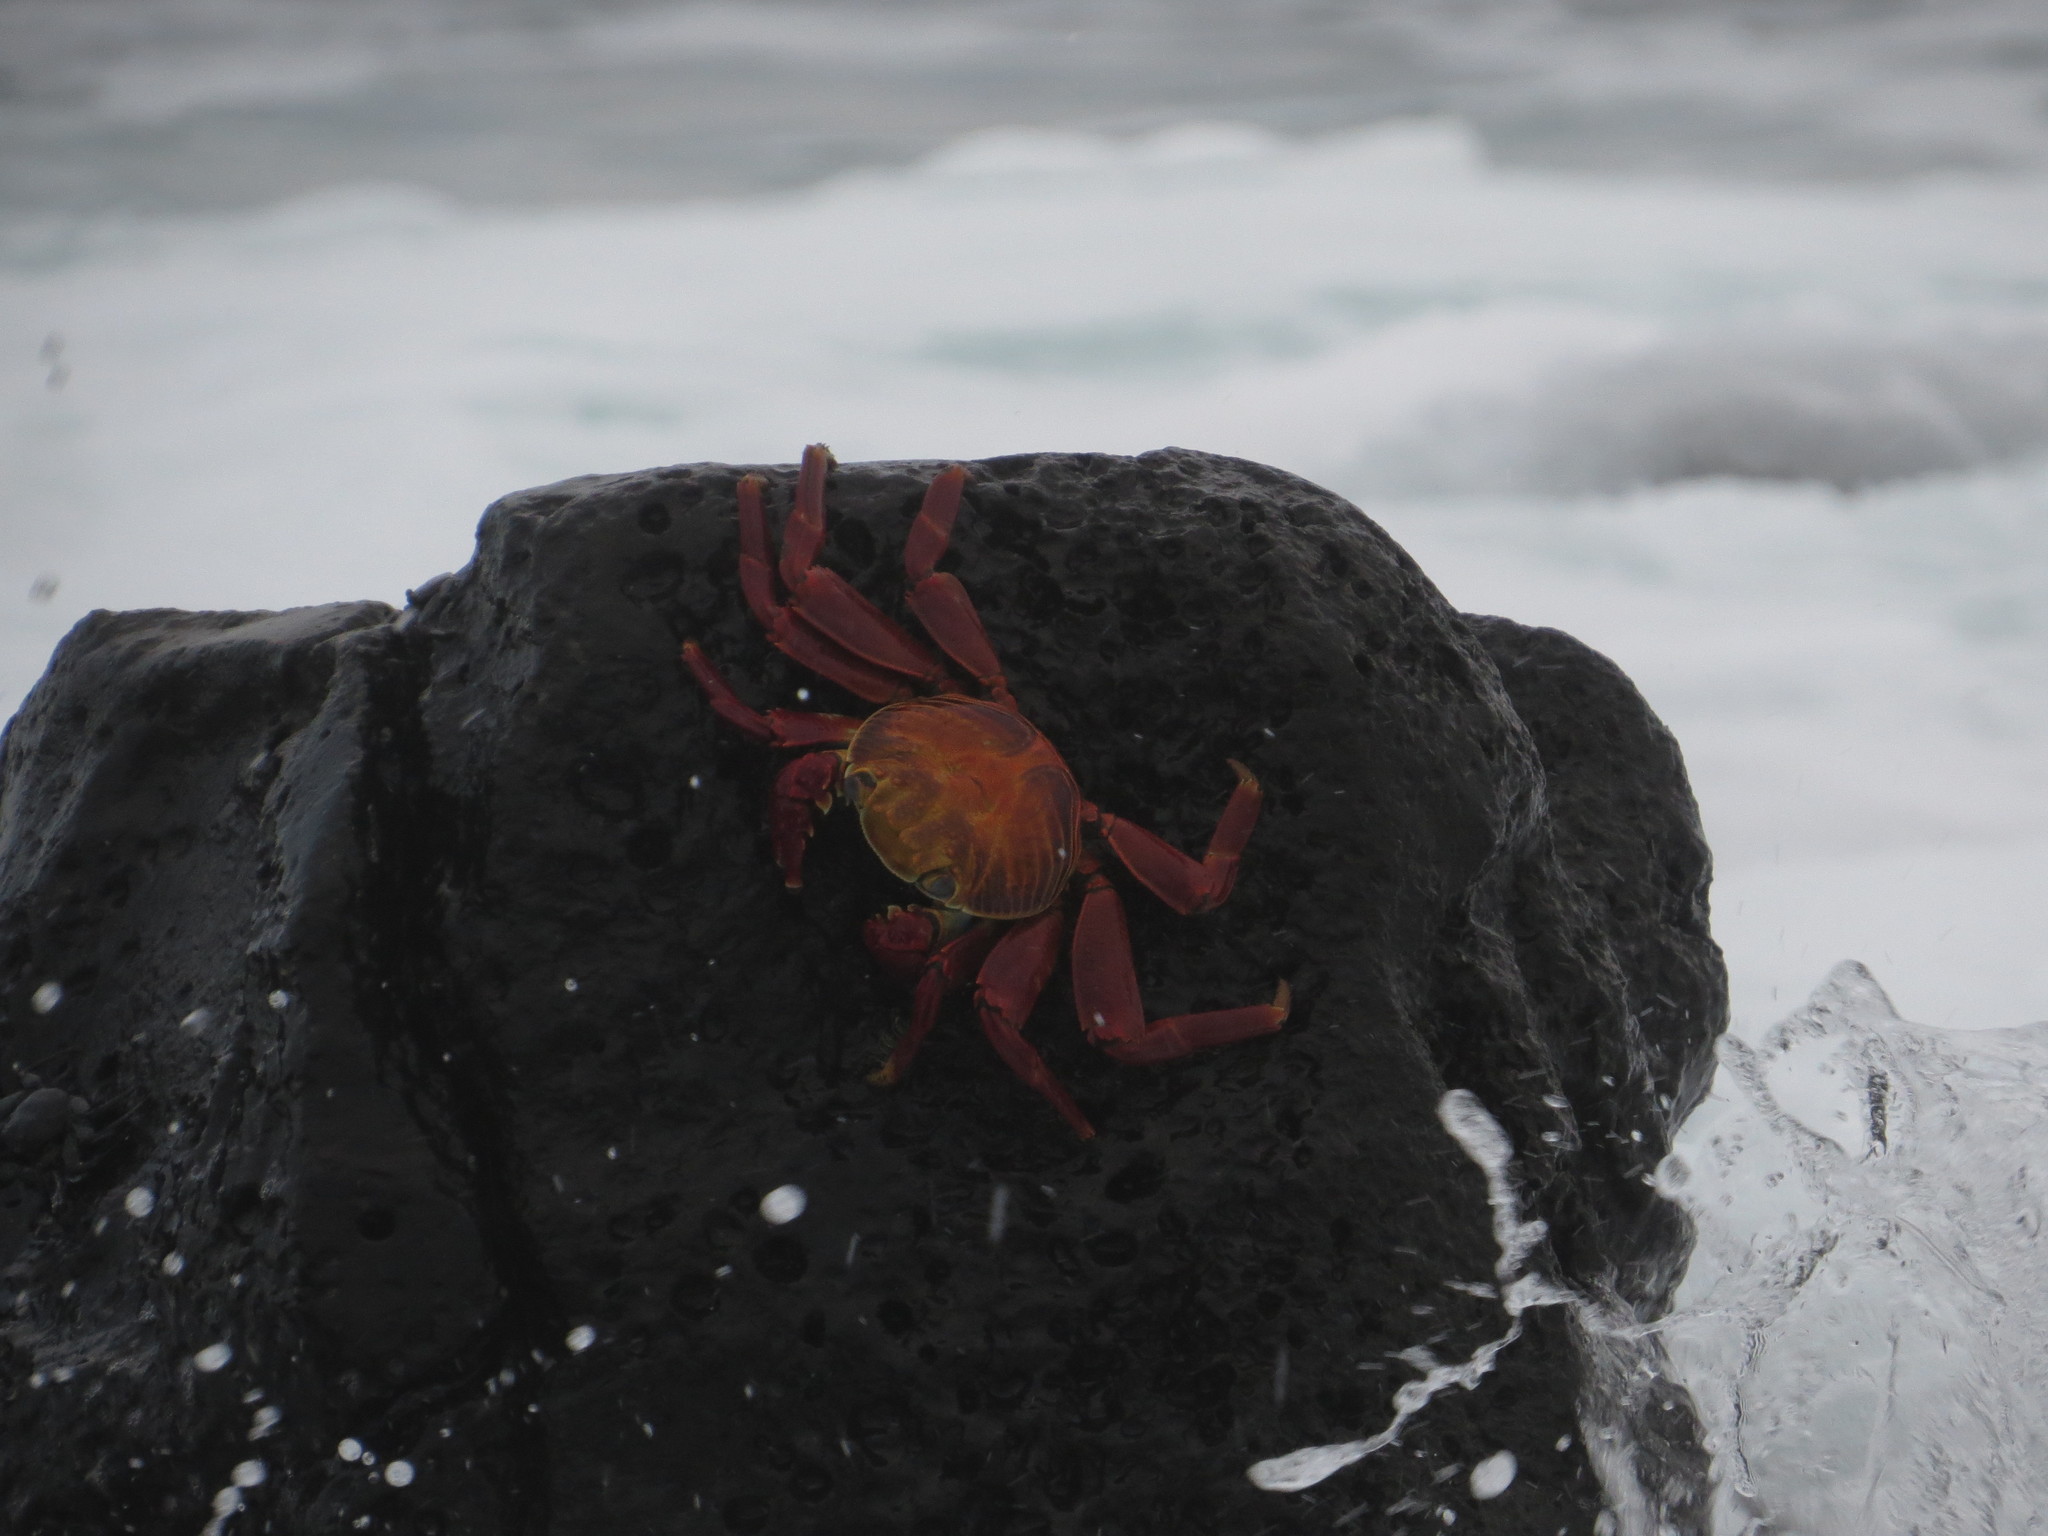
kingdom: Animalia
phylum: Arthropoda
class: Malacostraca
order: Decapoda
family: Grapsidae
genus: Grapsus
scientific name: Grapsus grapsus
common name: Sally lightfoot
